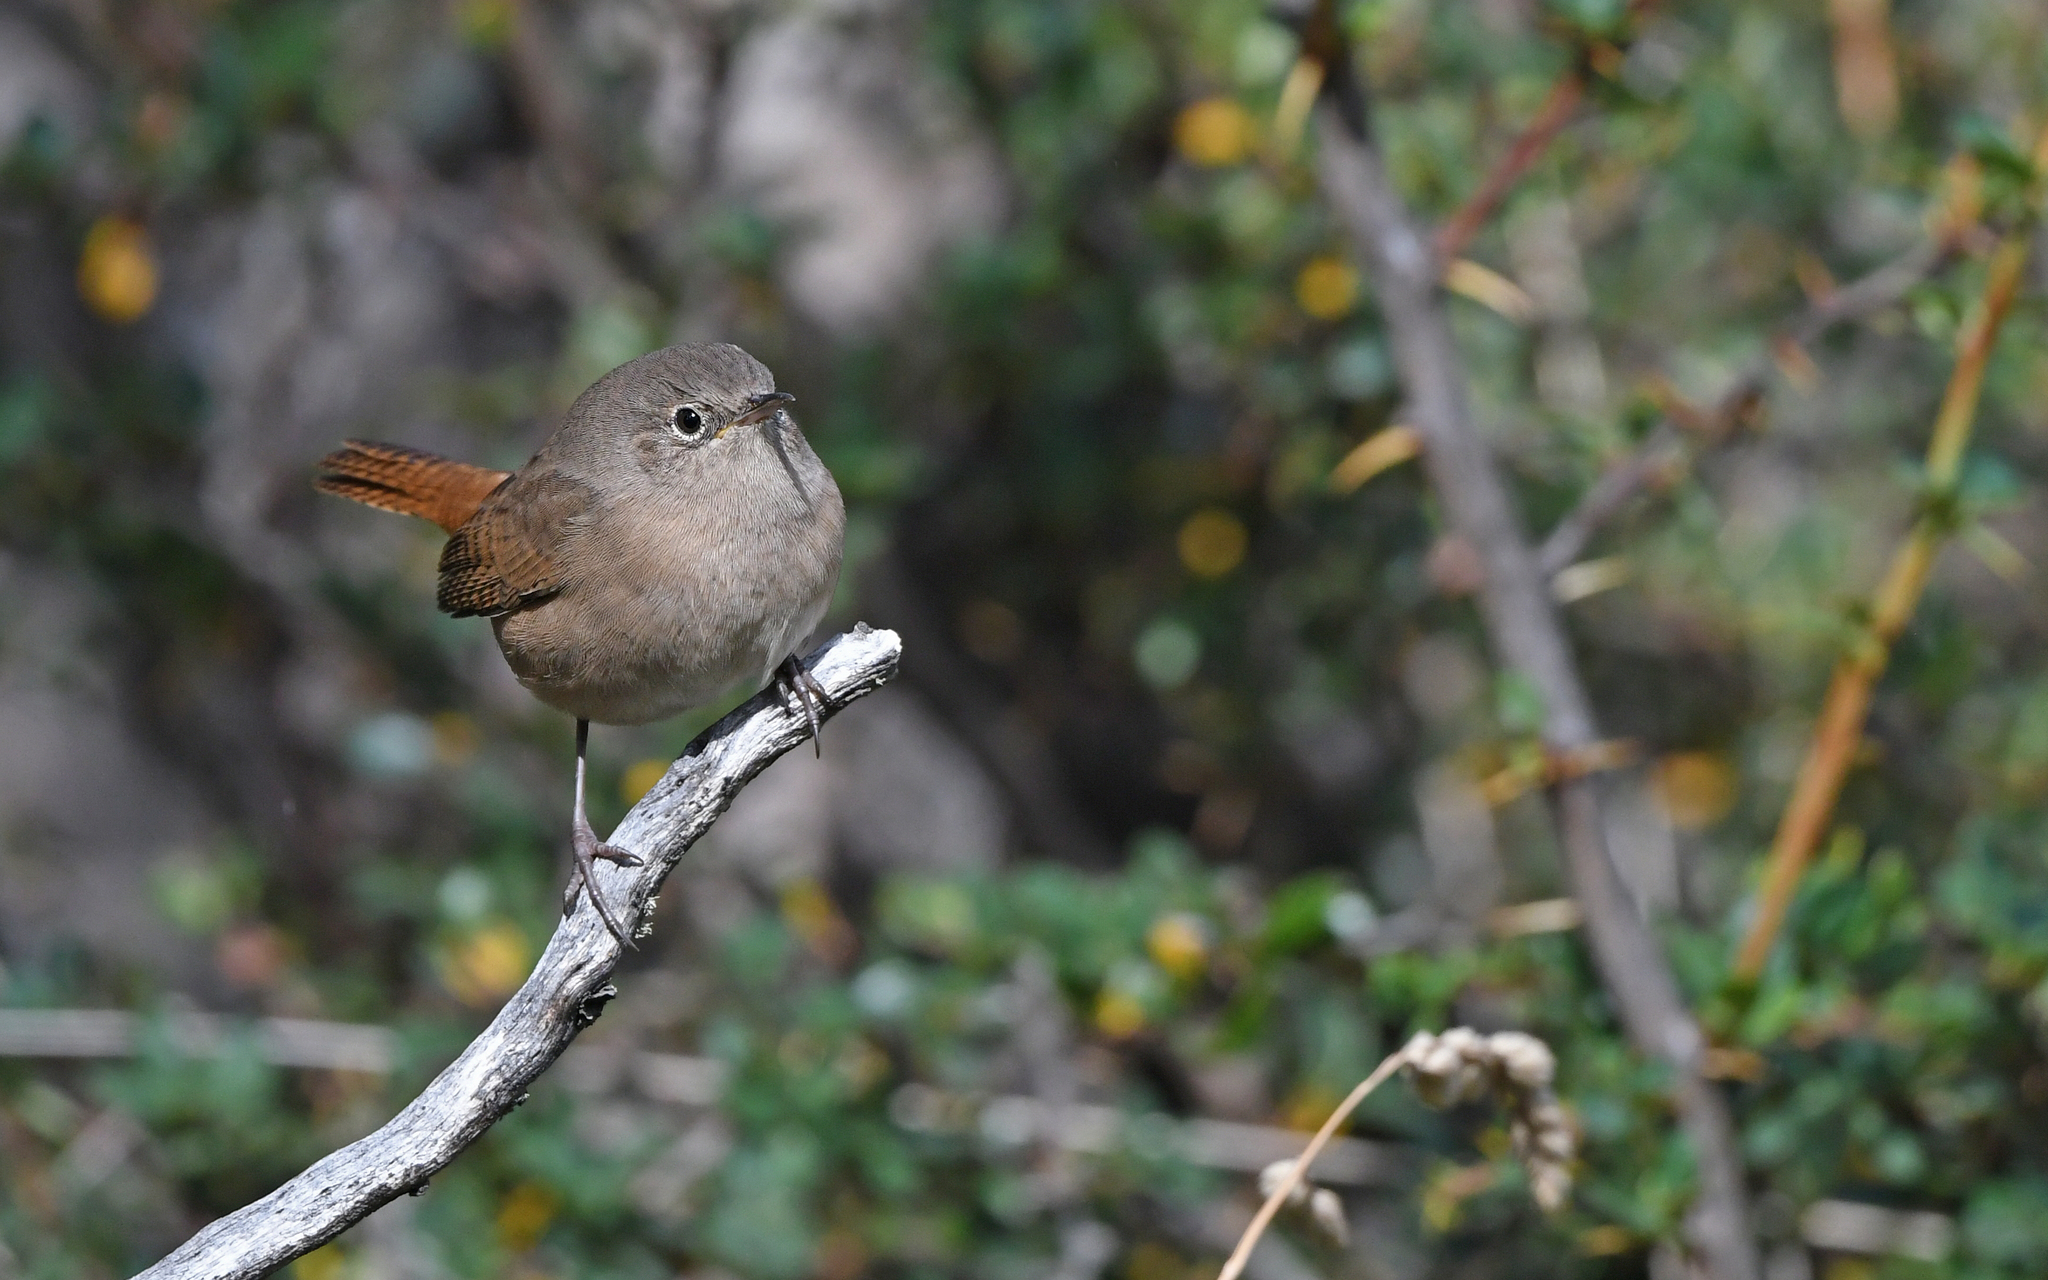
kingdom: Animalia
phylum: Chordata
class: Aves
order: Passeriformes
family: Troglodytidae
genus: Troglodytes
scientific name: Troglodytes aedon
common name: House wren
